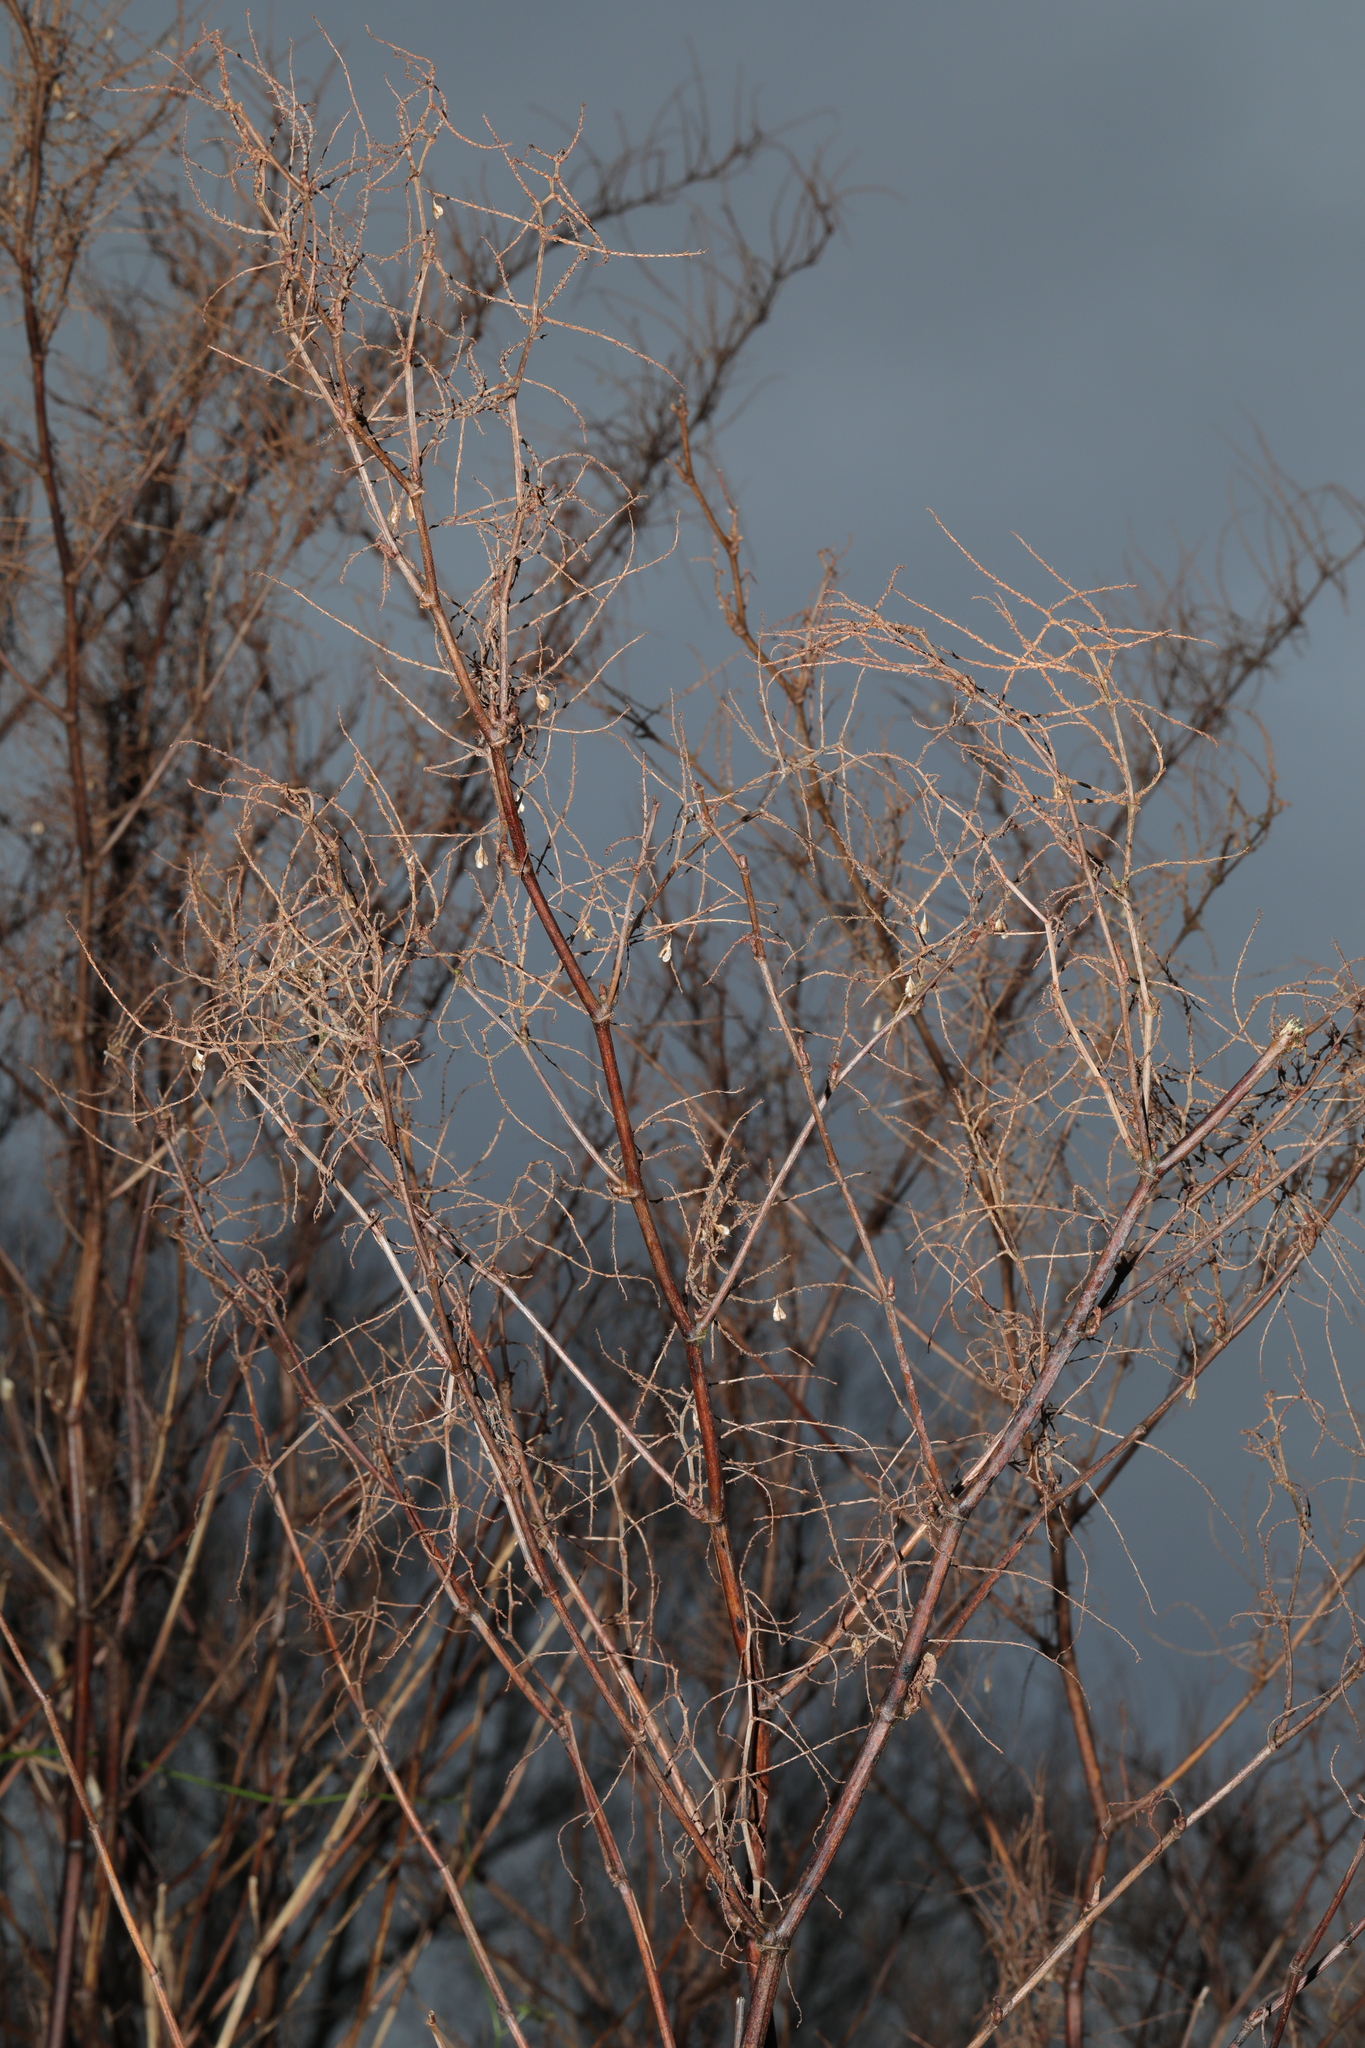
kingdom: Plantae
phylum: Tracheophyta
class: Magnoliopsida
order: Caryophyllales
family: Polygonaceae
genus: Reynoutria
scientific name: Reynoutria japonica
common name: Japanese knotweed
